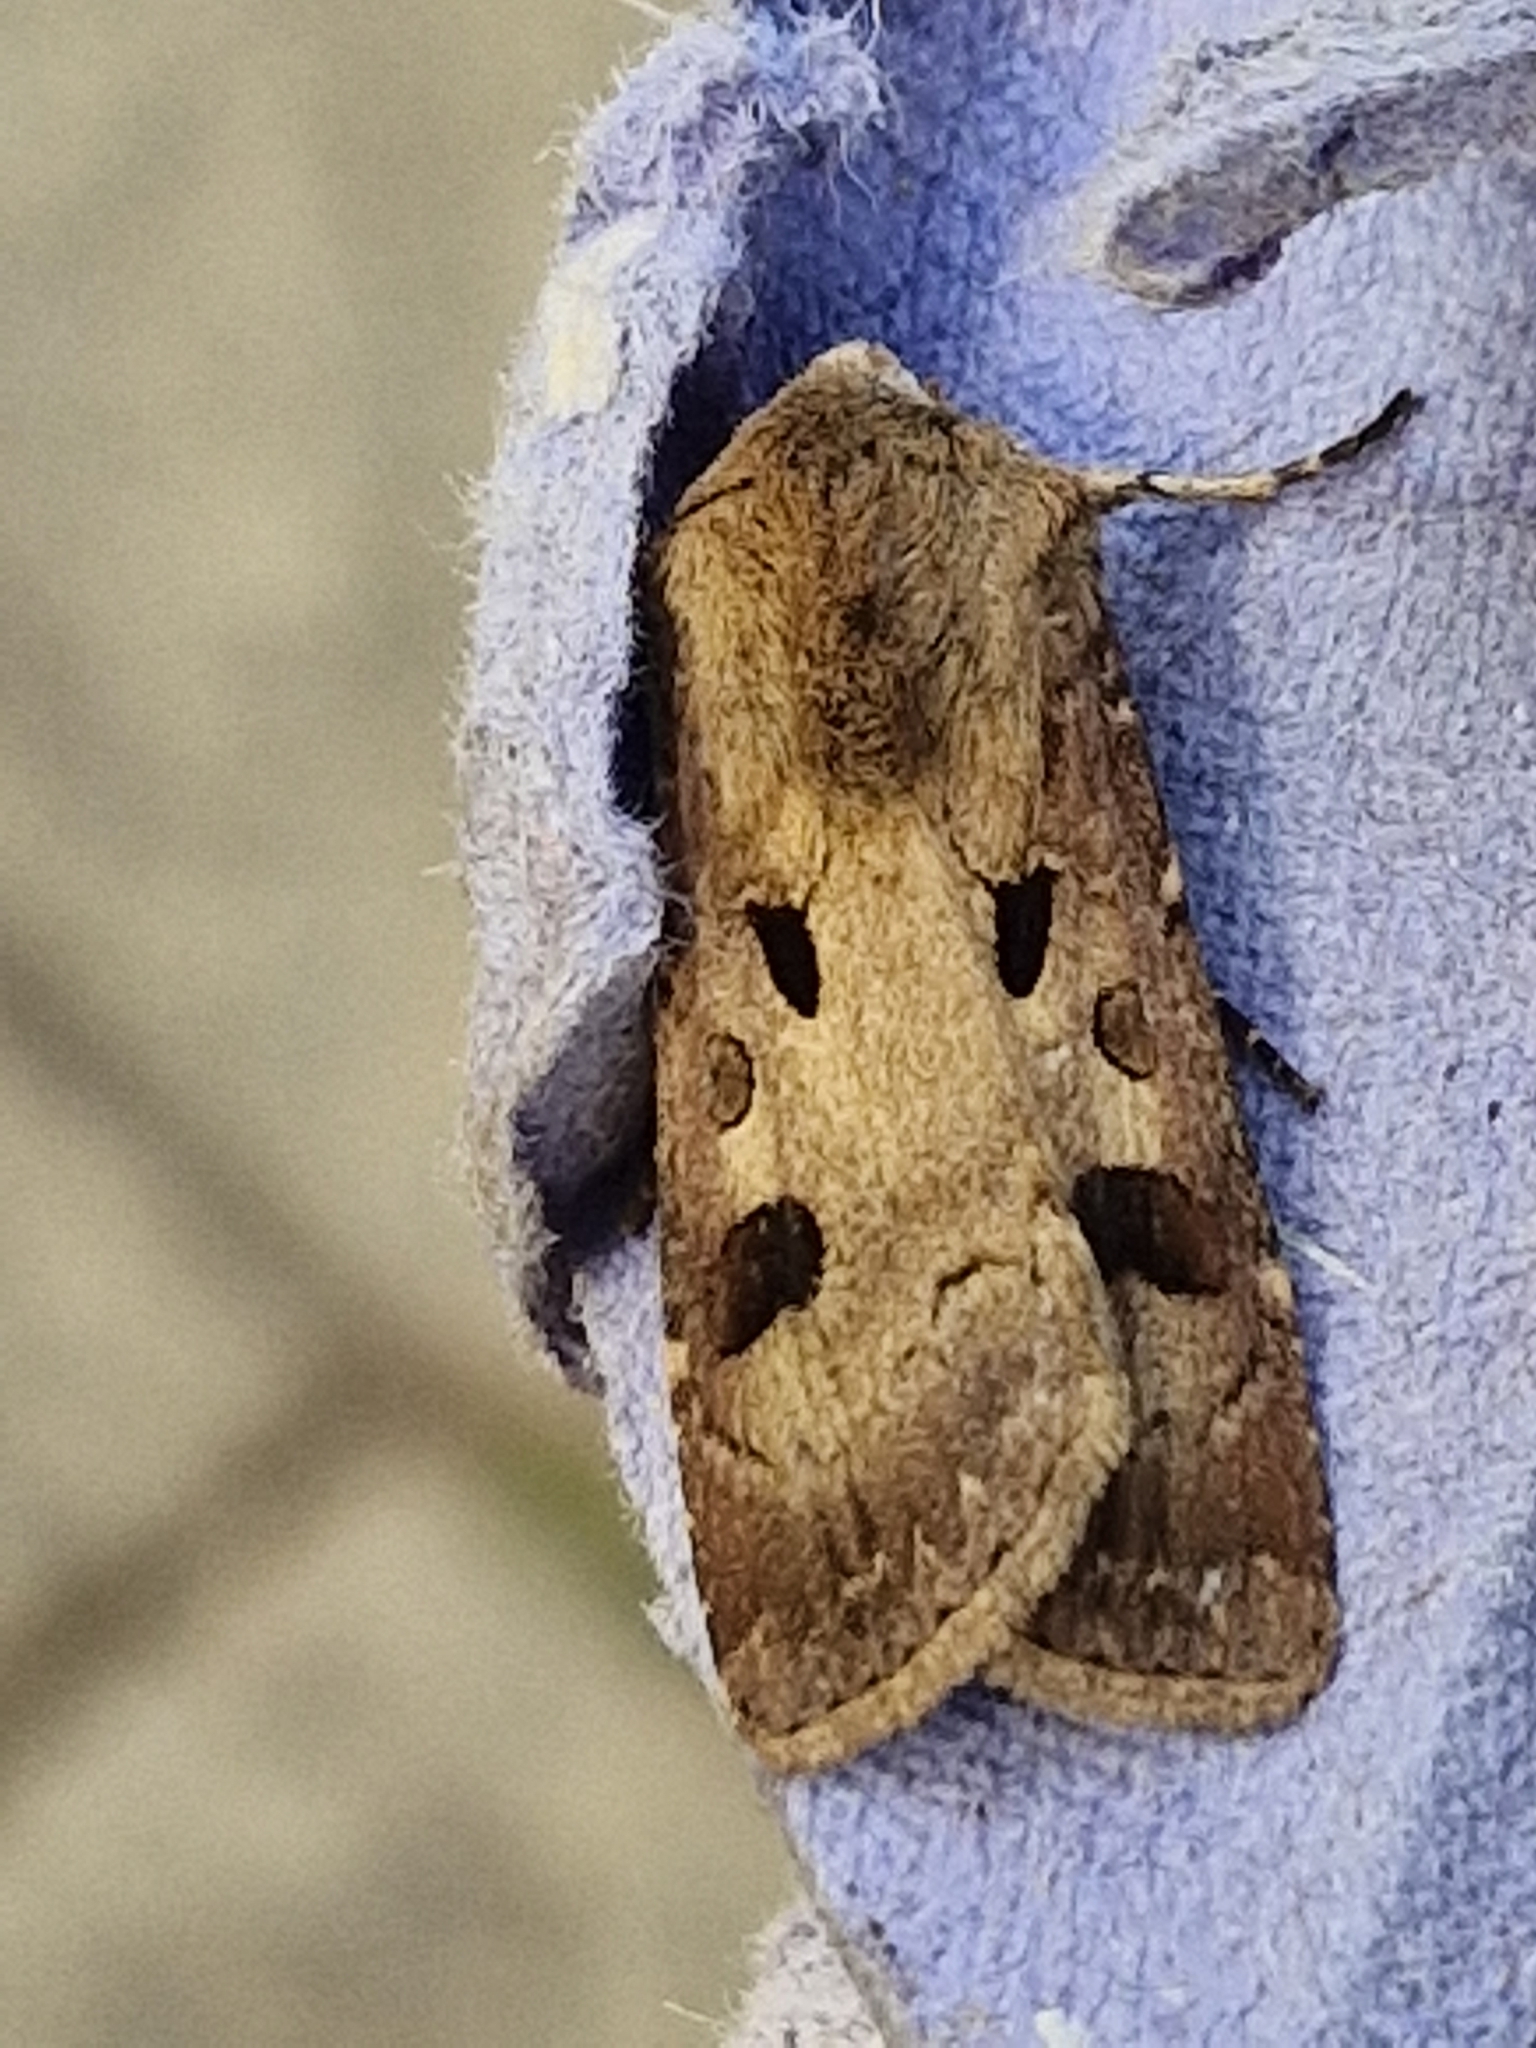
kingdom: Animalia
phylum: Arthropoda
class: Insecta
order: Lepidoptera
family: Noctuidae
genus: Agrotis
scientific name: Agrotis exclamationis
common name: Heart and dart
